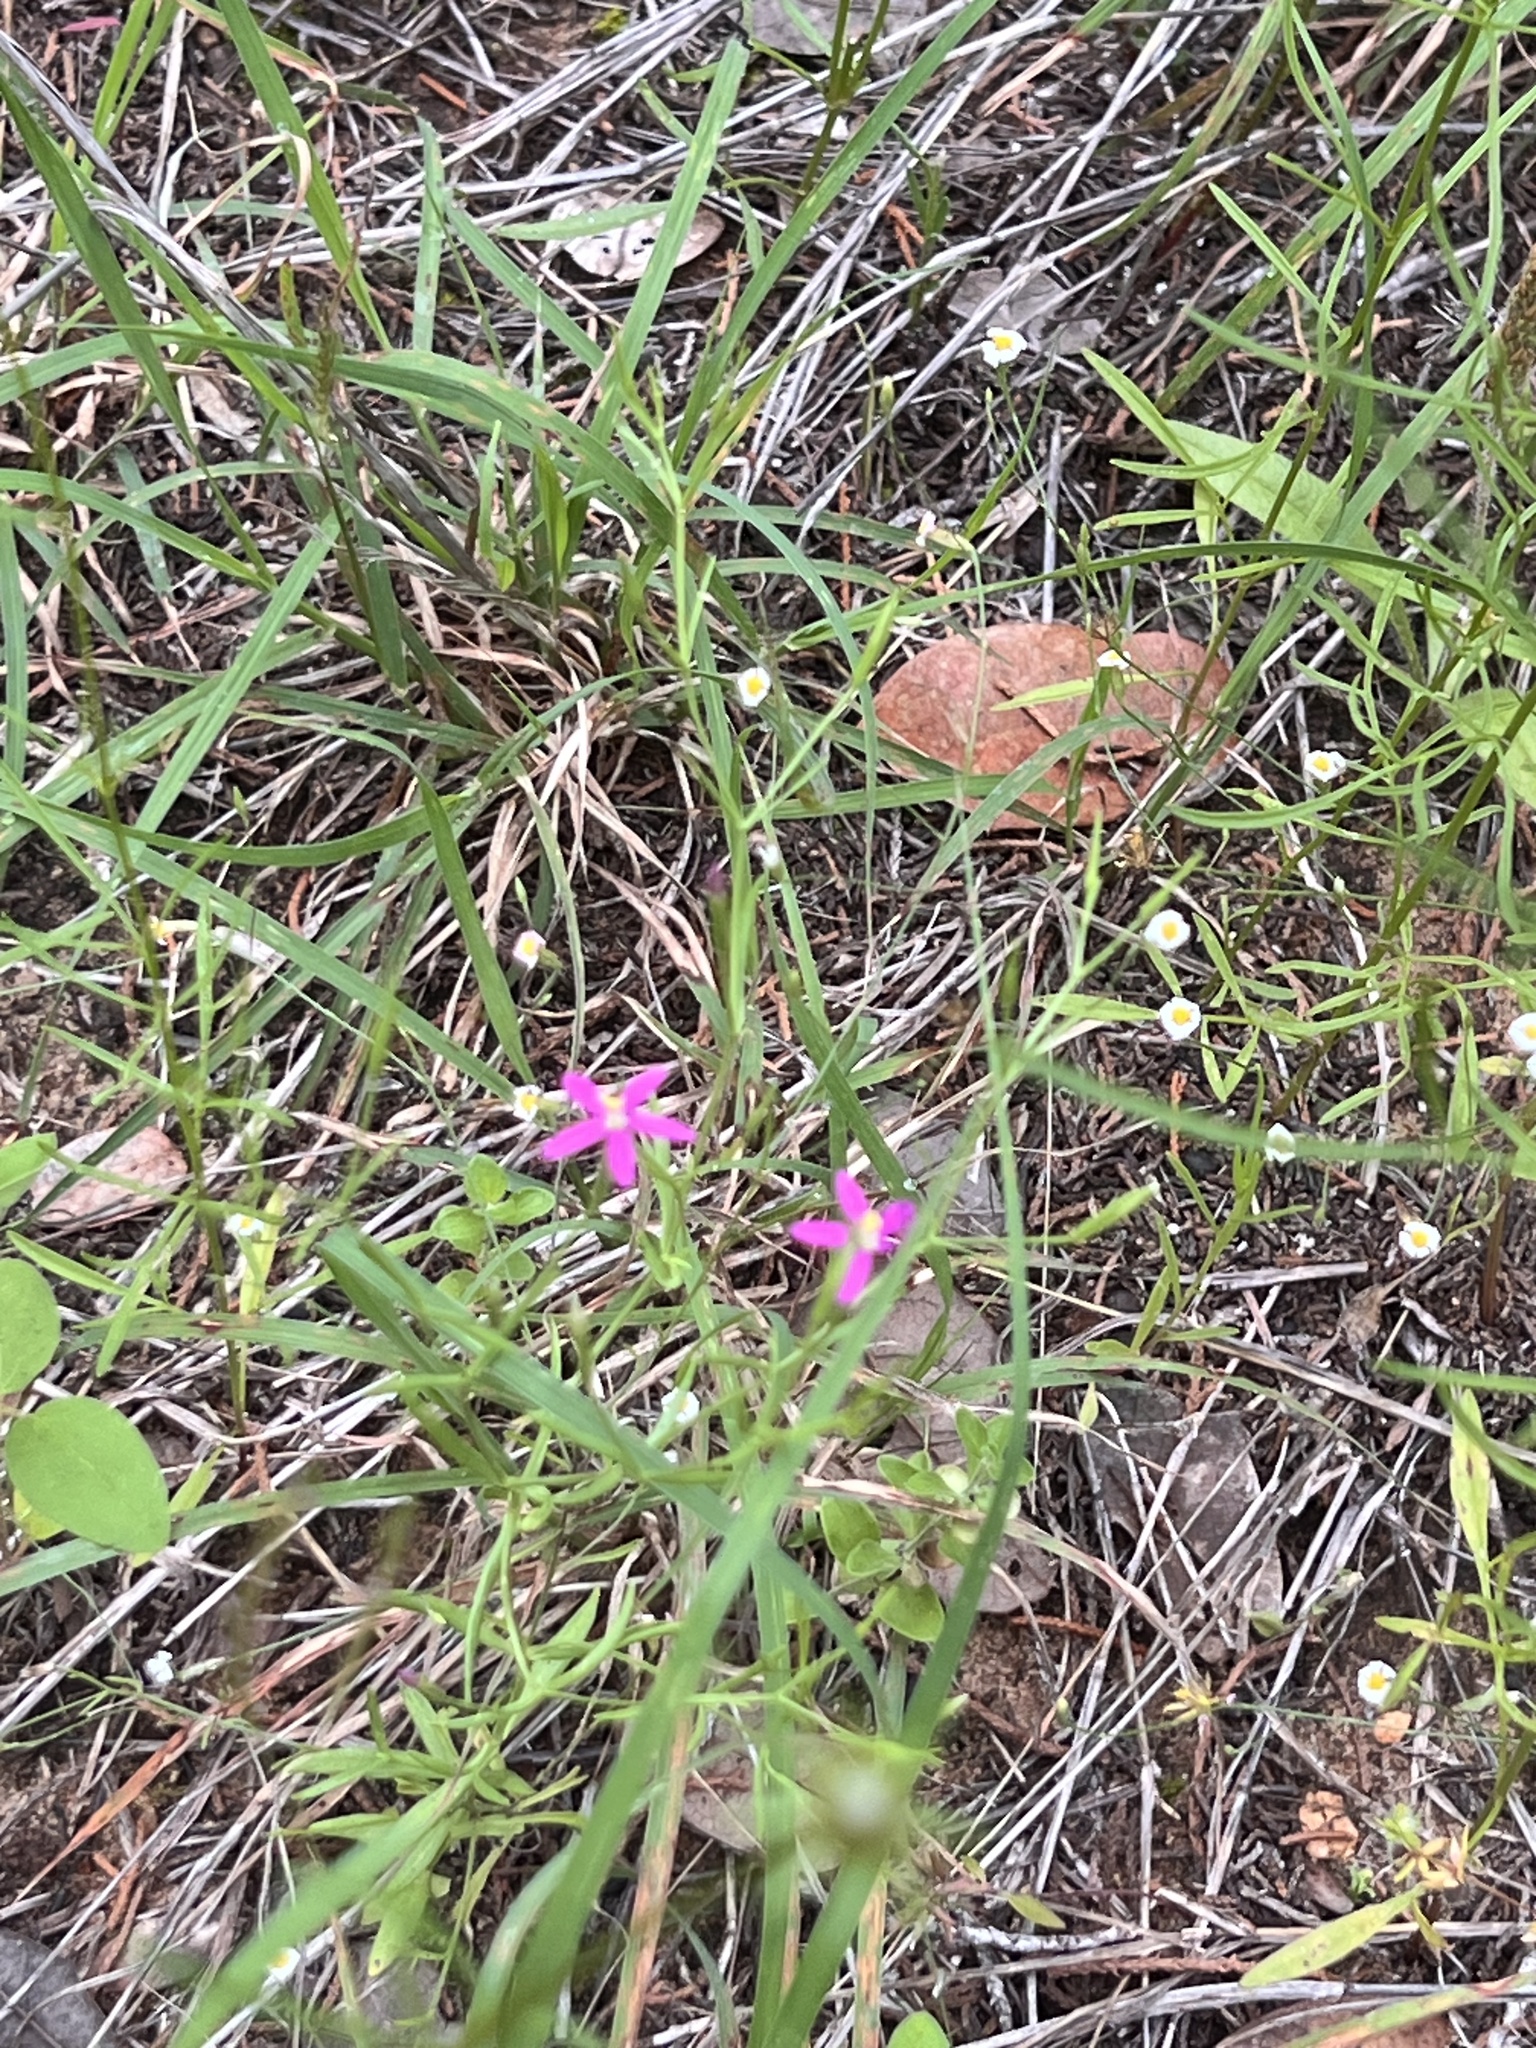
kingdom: Plantae
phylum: Tracheophyta
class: Magnoliopsida
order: Gentianales
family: Gentianaceae
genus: Zeltnera
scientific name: Zeltnera texensis
